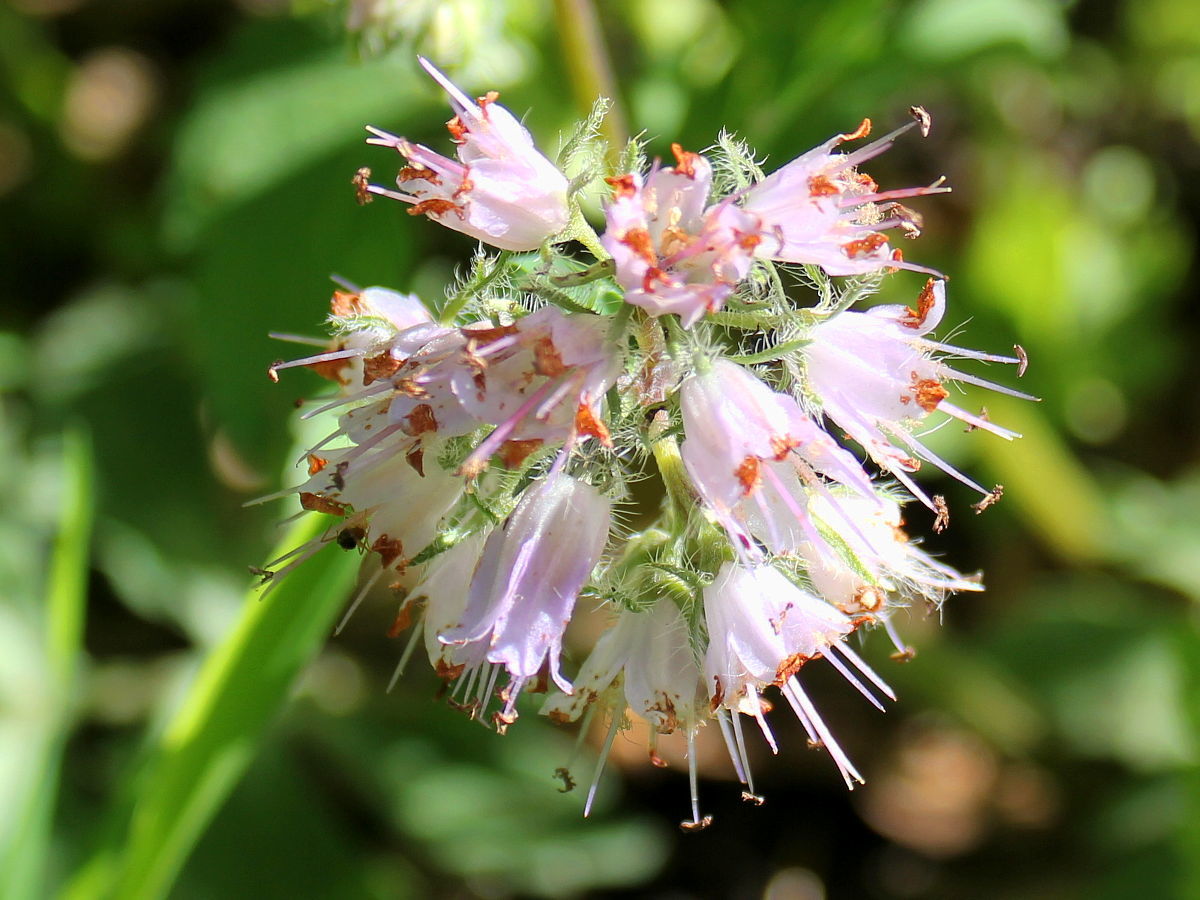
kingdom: Plantae
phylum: Tracheophyta
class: Magnoliopsida
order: Boraginales
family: Hydrophyllaceae
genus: Hydrophyllum
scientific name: Hydrophyllum virginianum
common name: Virginia waterleaf
